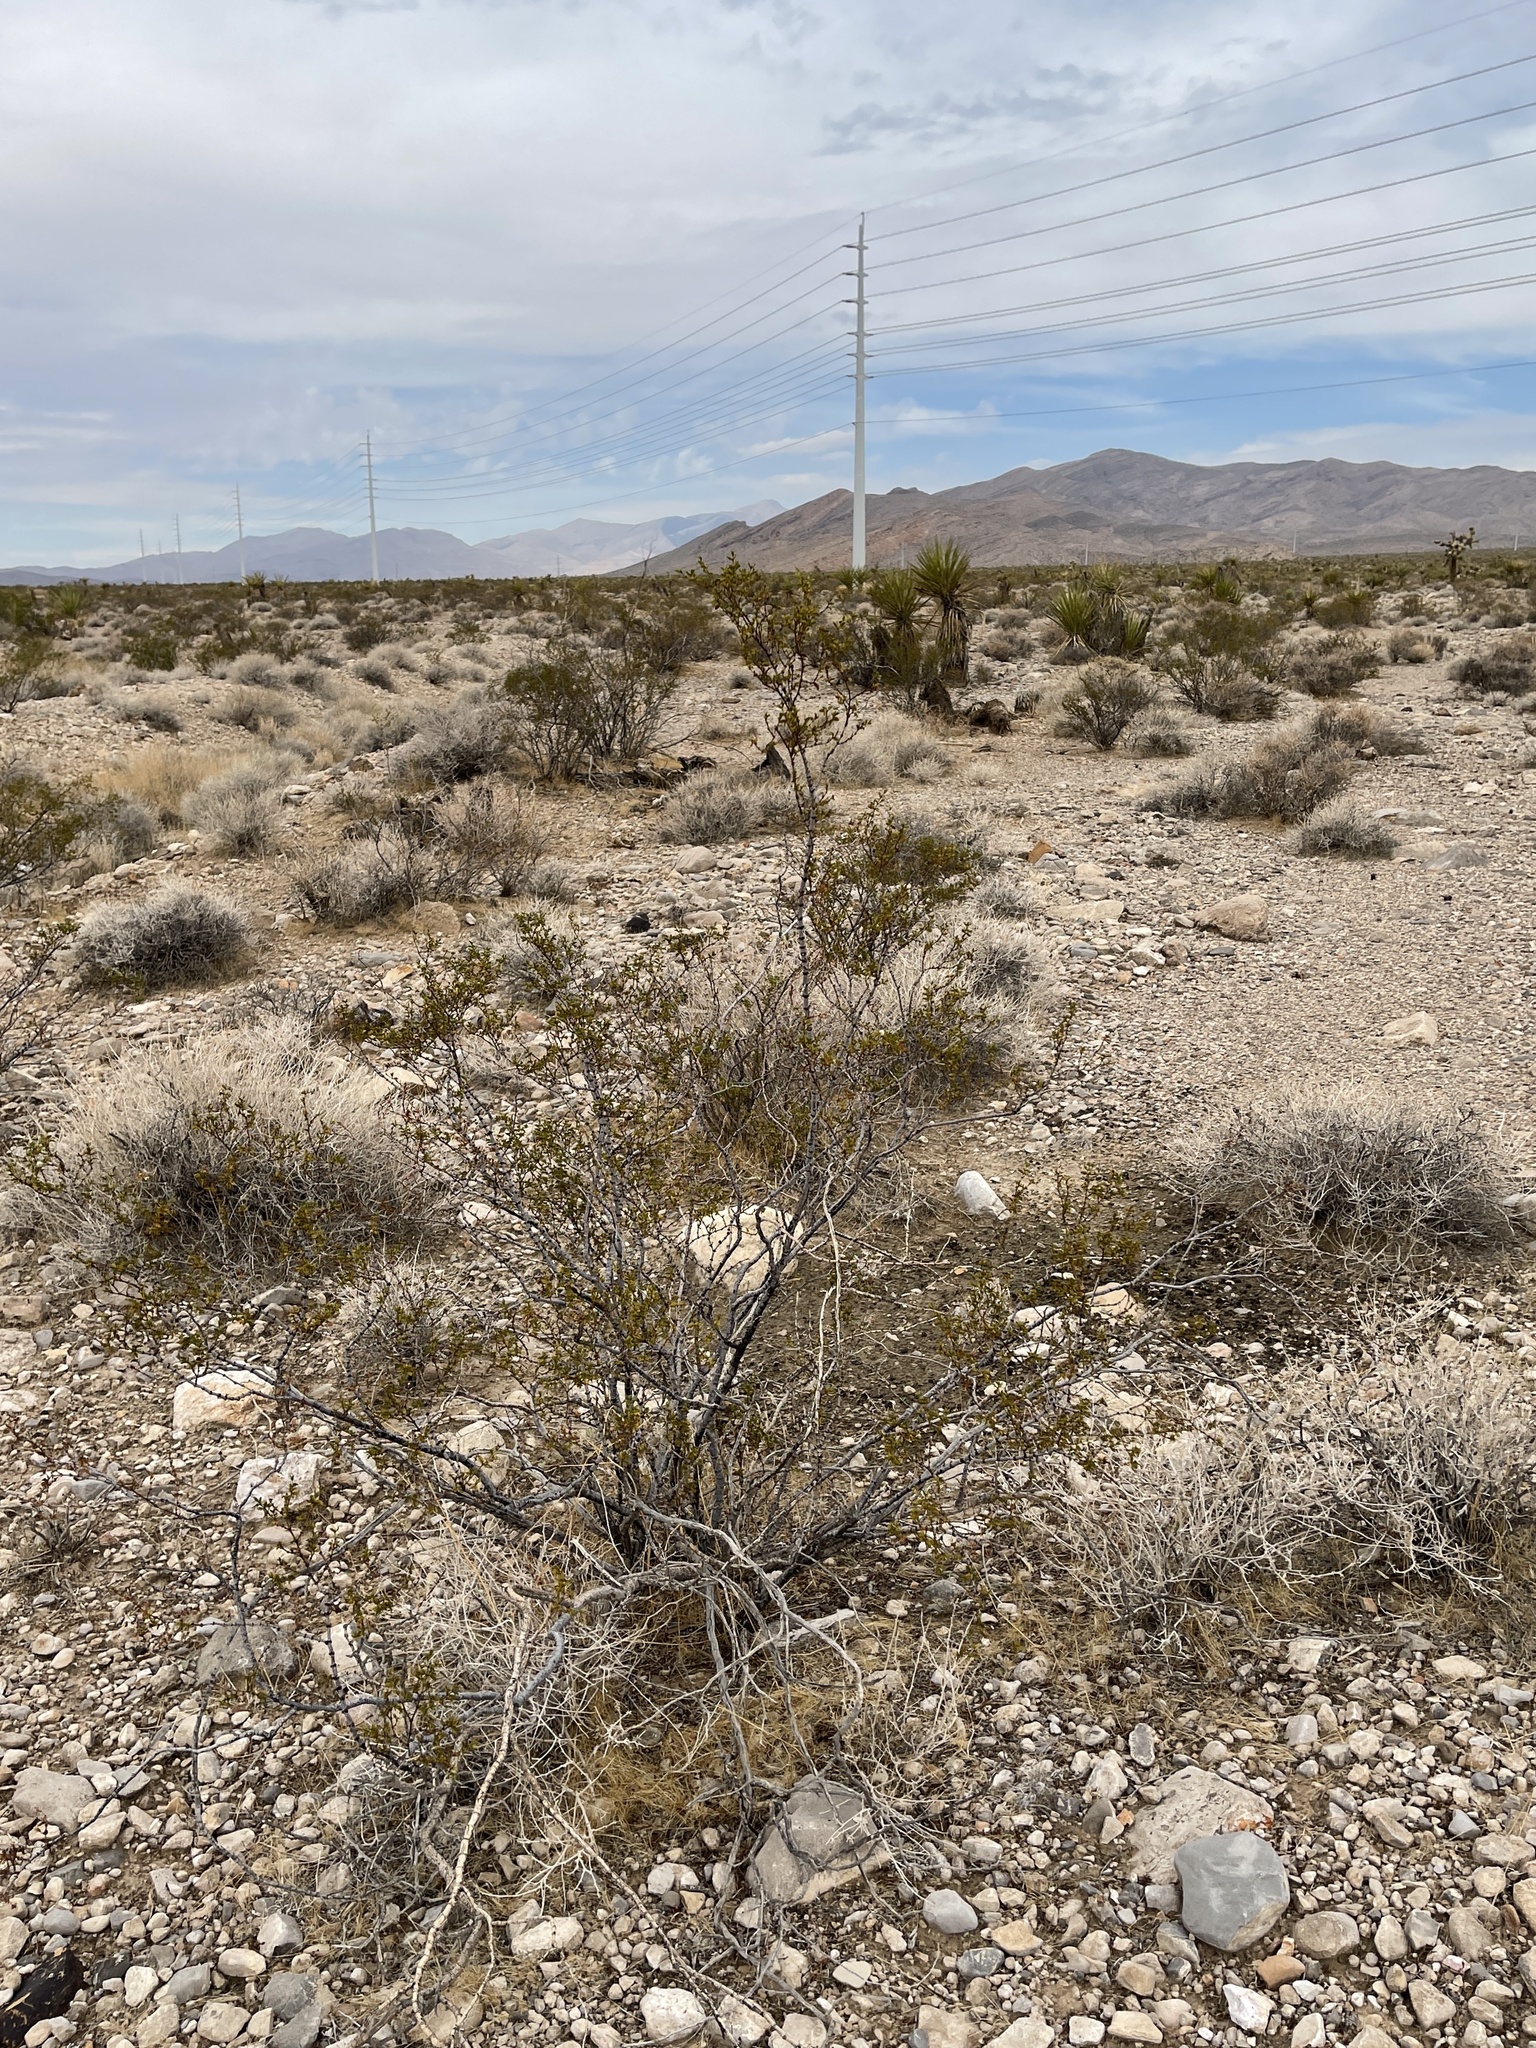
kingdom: Plantae
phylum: Tracheophyta
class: Magnoliopsida
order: Zygophyllales
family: Zygophyllaceae
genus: Larrea
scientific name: Larrea tridentata
